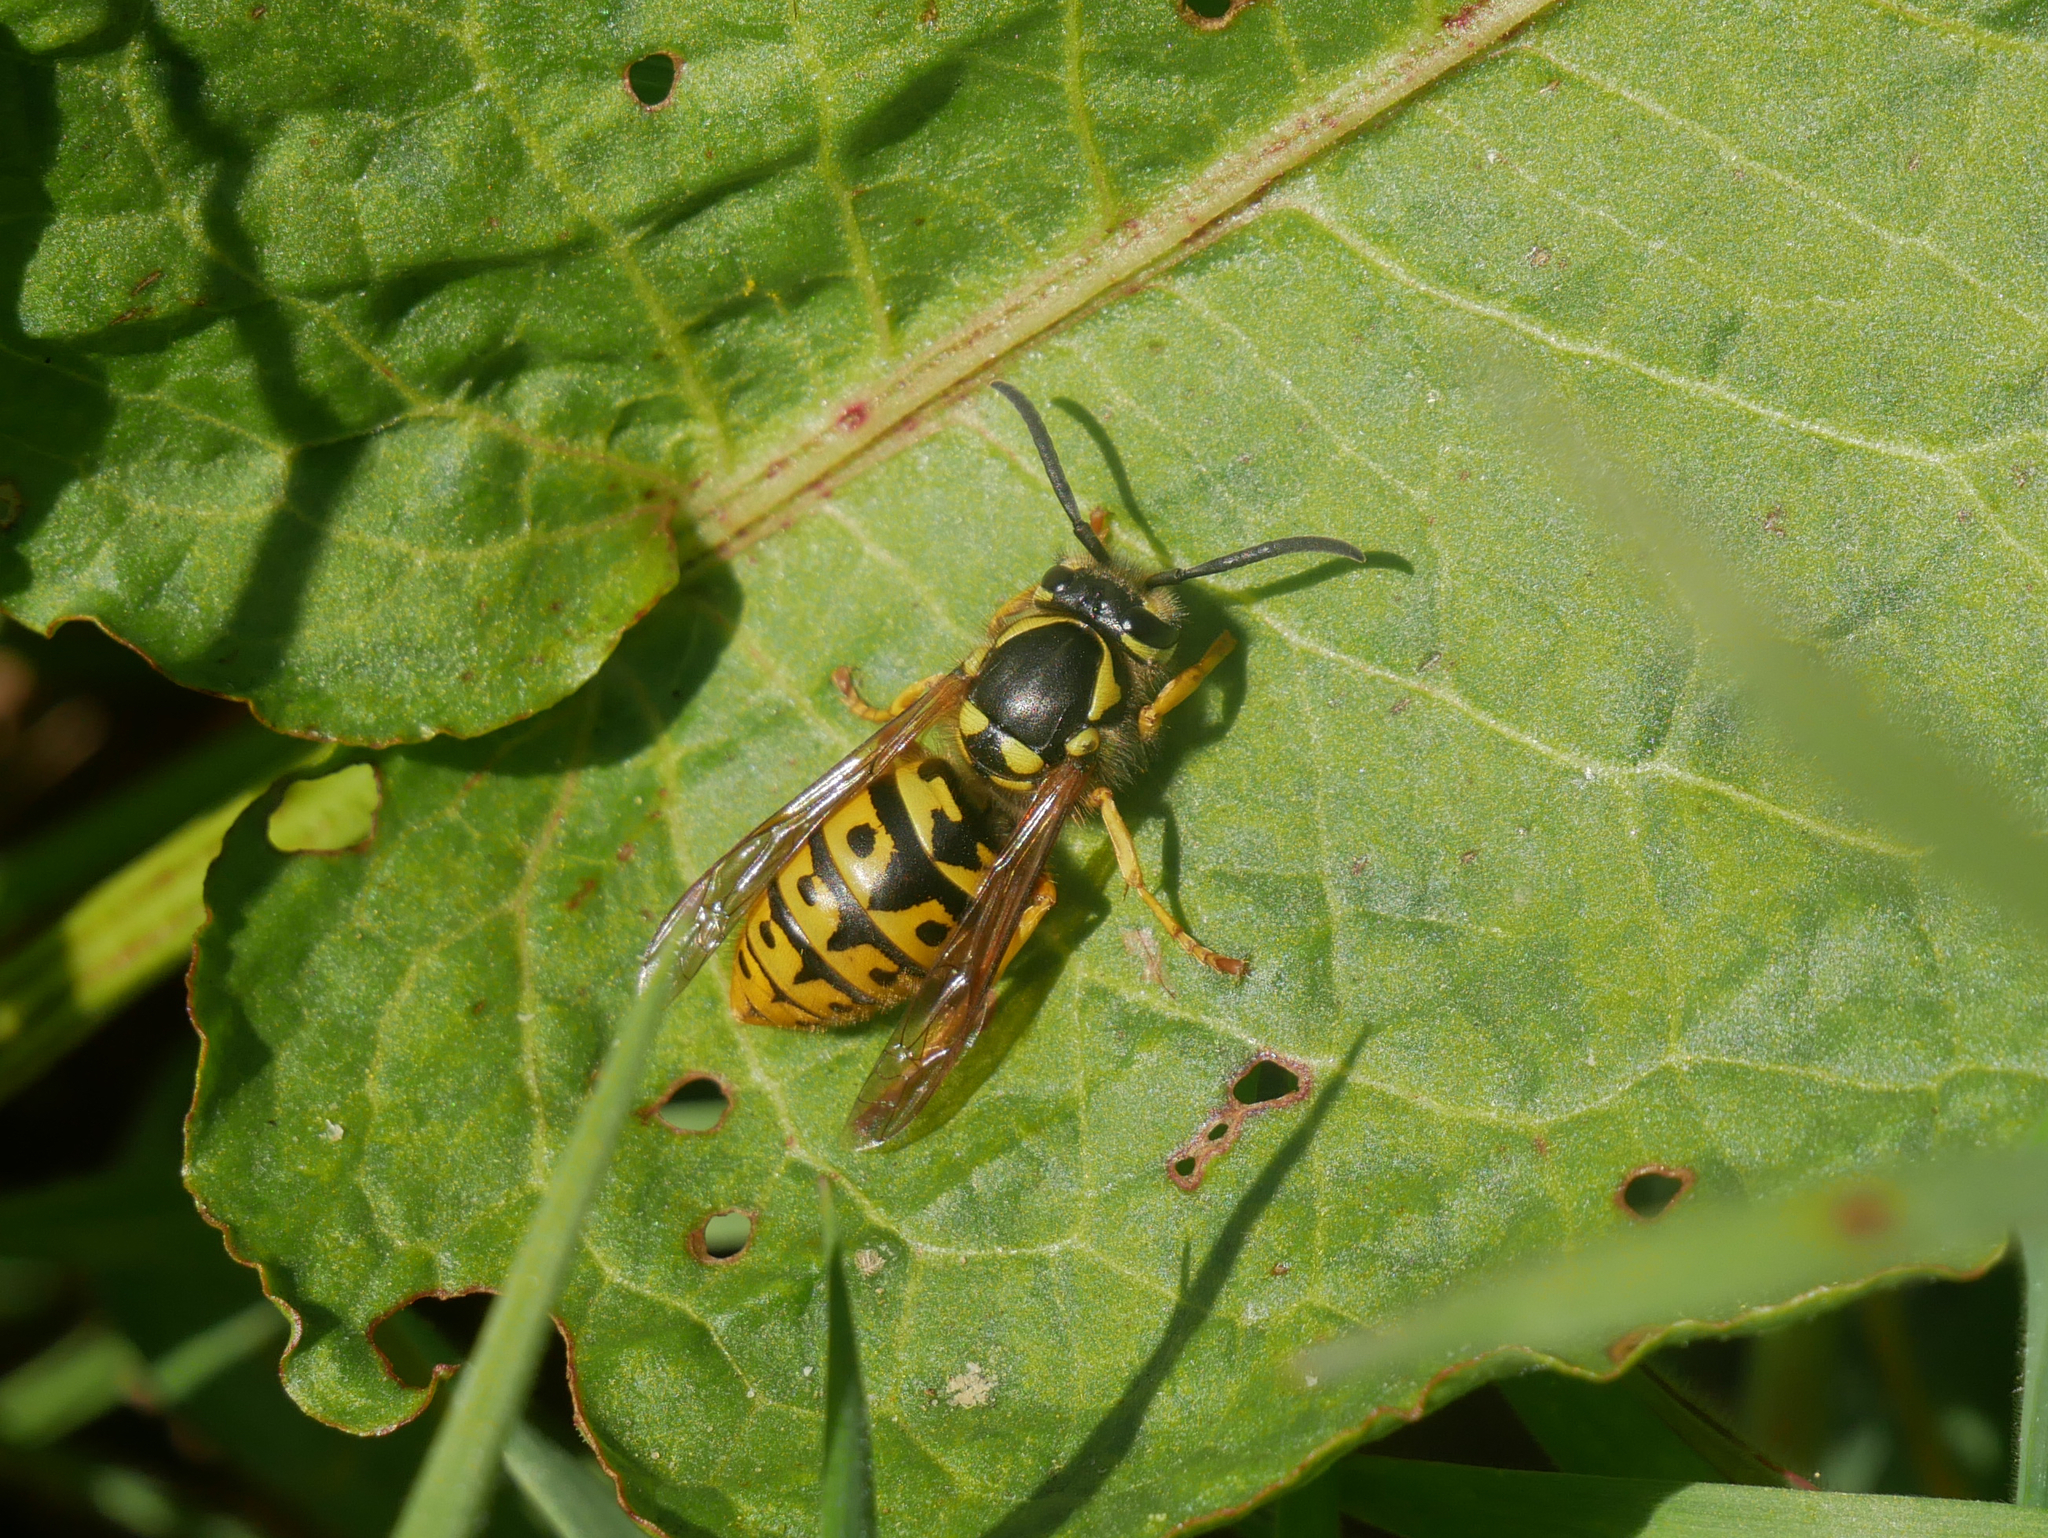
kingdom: Animalia
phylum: Arthropoda
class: Insecta
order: Hymenoptera
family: Vespidae
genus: Vespula
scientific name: Vespula germanica
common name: German wasp
